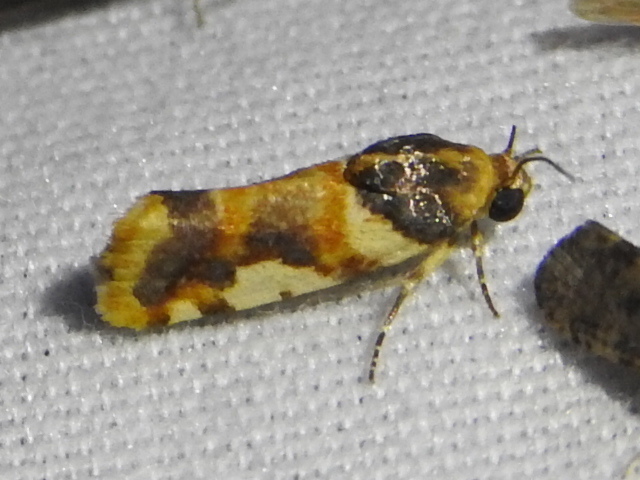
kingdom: Animalia
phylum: Arthropoda
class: Insecta
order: Lepidoptera
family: Noctuidae
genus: Acontia
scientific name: Acontia dama
